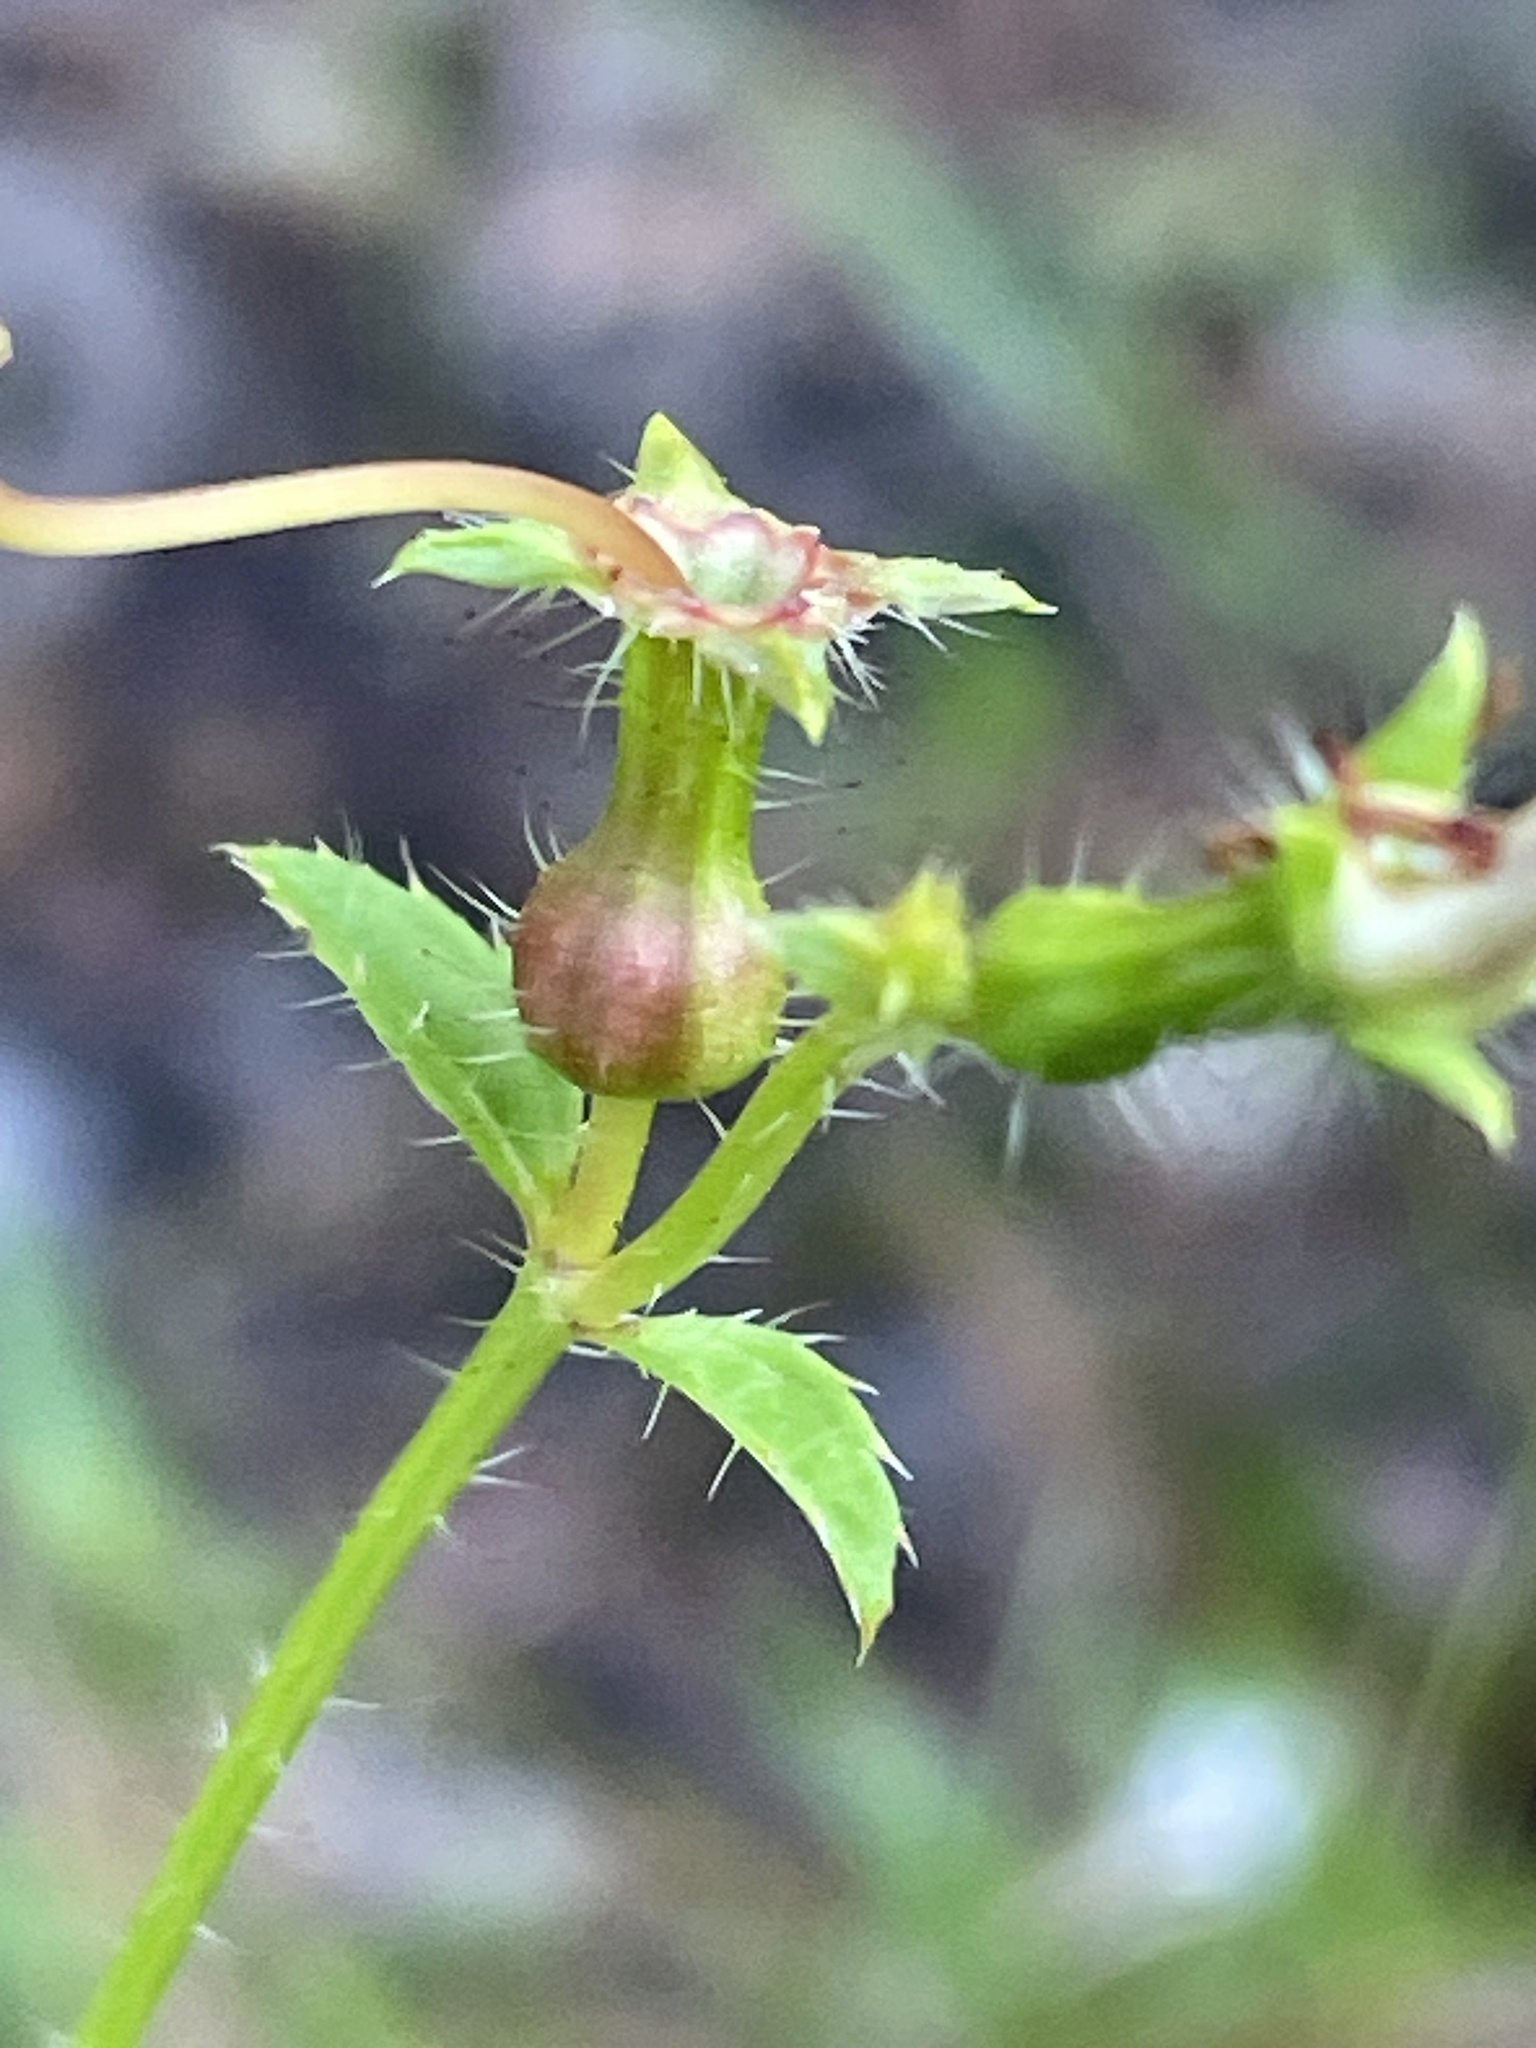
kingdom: Plantae
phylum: Tracheophyta
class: Magnoliopsida
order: Myrtales
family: Melastomataceae
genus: Rhexia
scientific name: Rhexia mariana
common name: Dull meadow-pitcher
